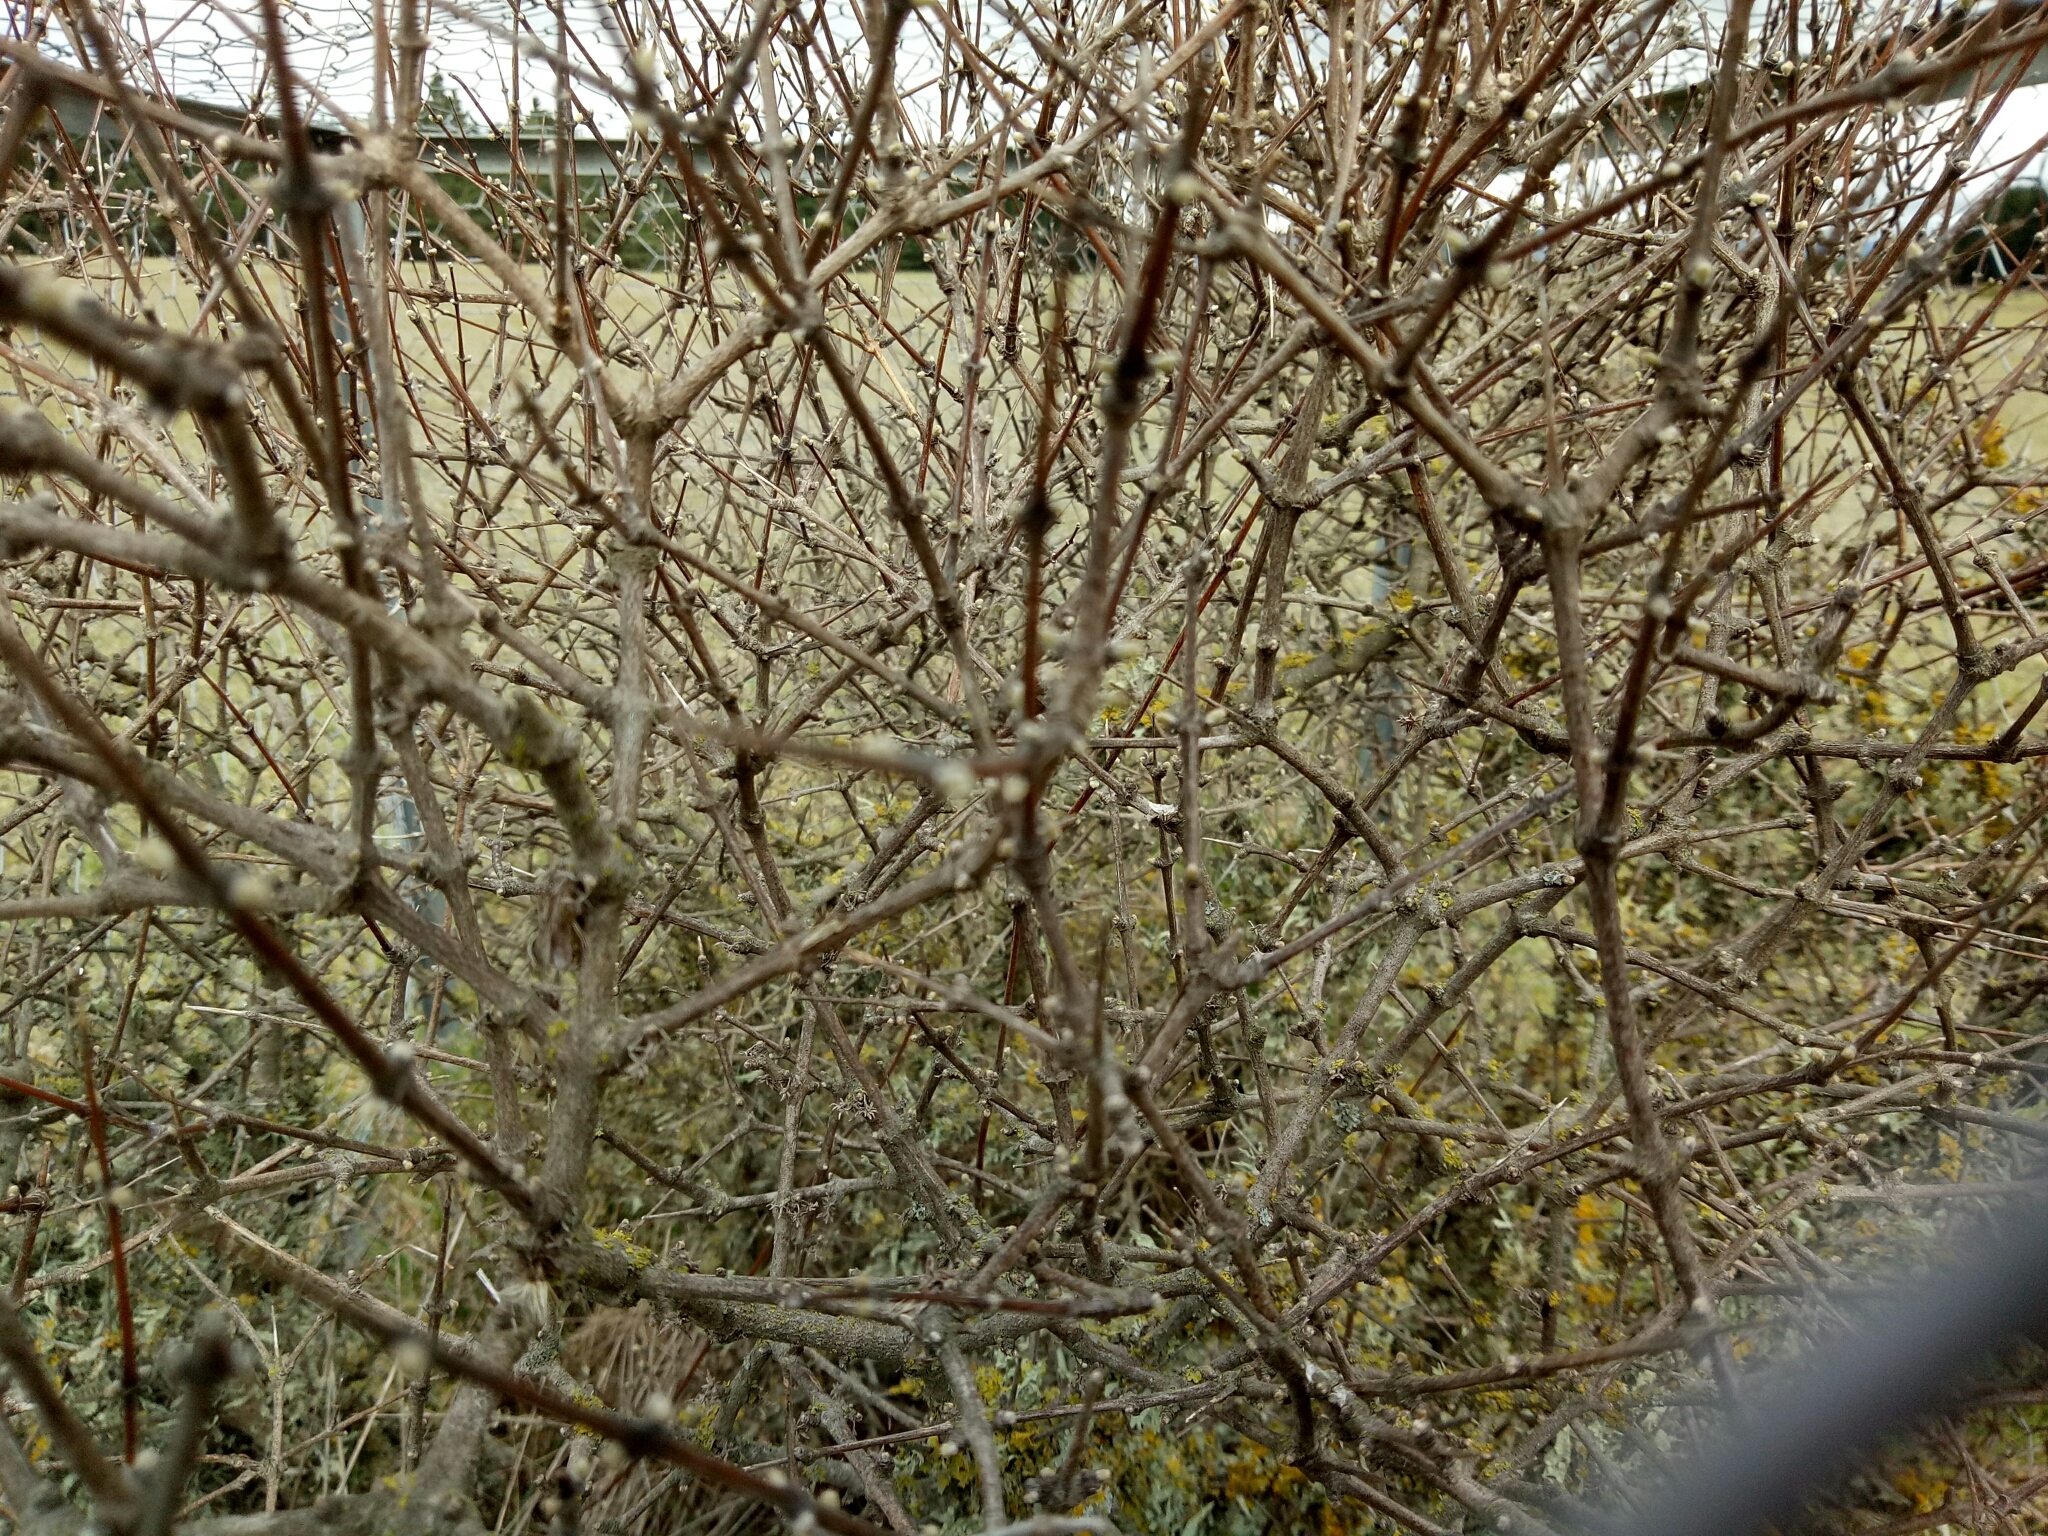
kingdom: Plantae
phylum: Tracheophyta
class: Magnoliopsida
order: Asterales
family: Asteraceae
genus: Olearia
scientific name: Olearia adenocarpa
